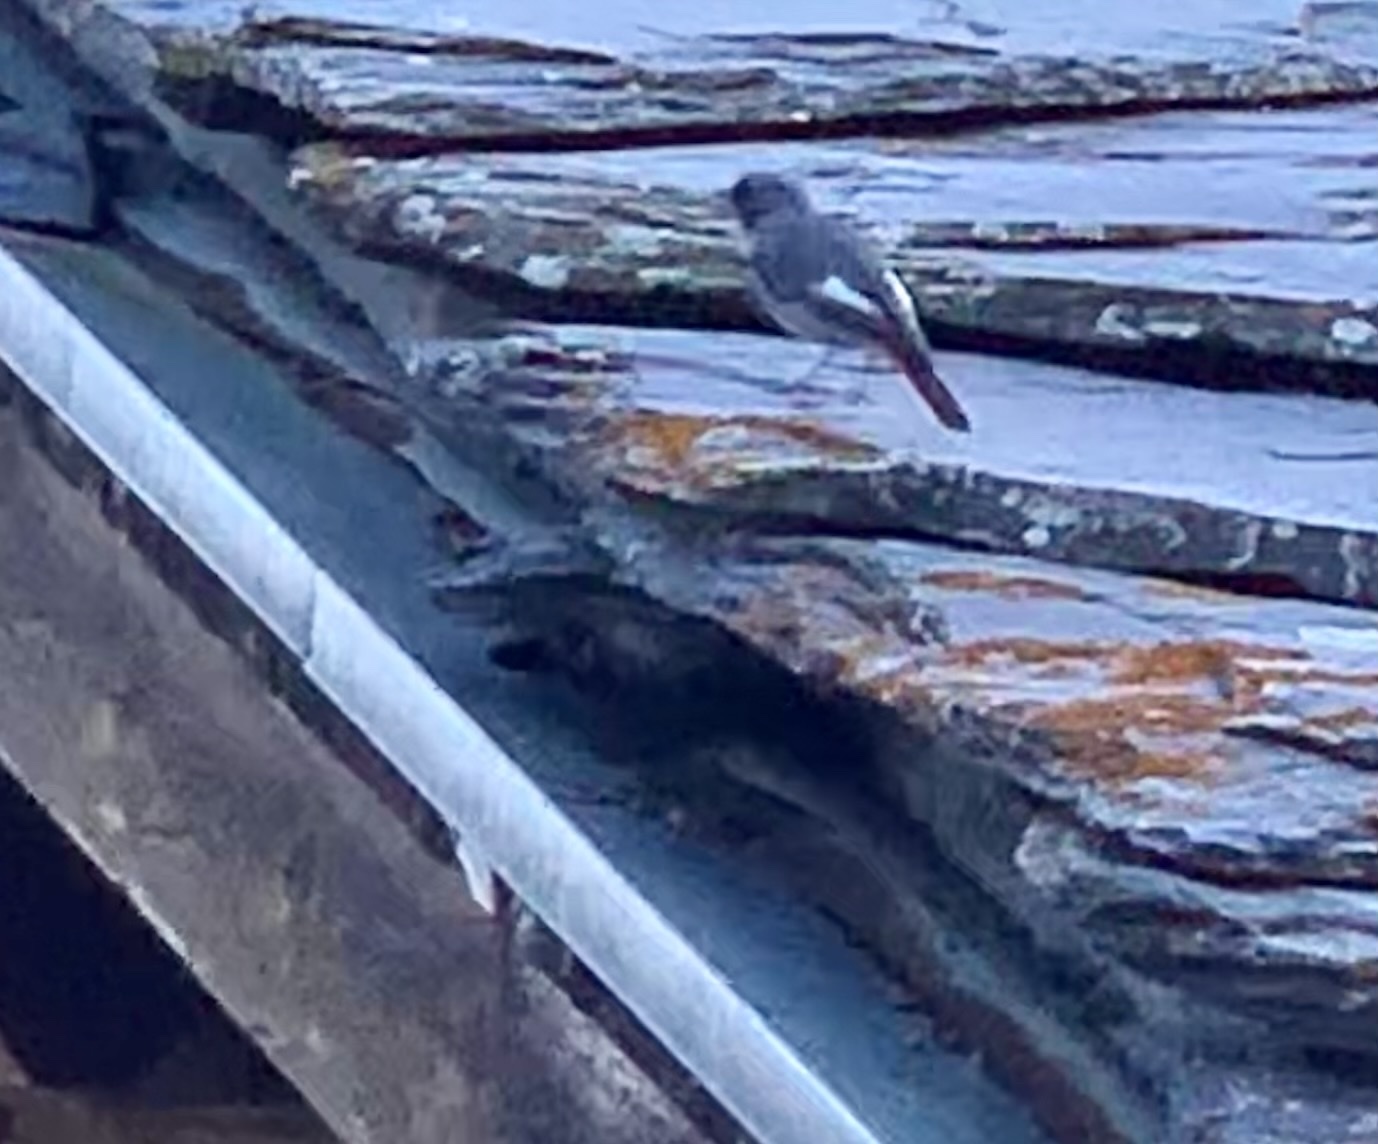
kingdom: Animalia
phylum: Chordata
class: Aves
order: Passeriformes
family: Muscicapidae
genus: Phoenicurus
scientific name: Phoenicurus ochruros
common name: Black redstart
